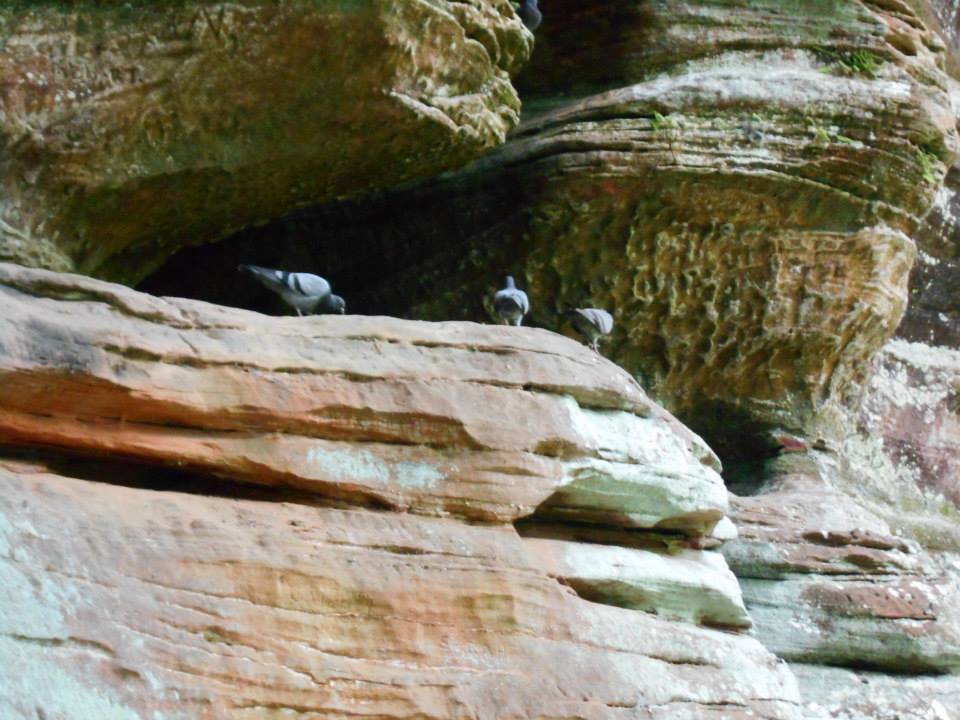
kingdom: Animalia
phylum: Chordata
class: Aves
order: Columbiformes
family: Columbidae
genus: Columba
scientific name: Columba livia
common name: Rock pigeon
